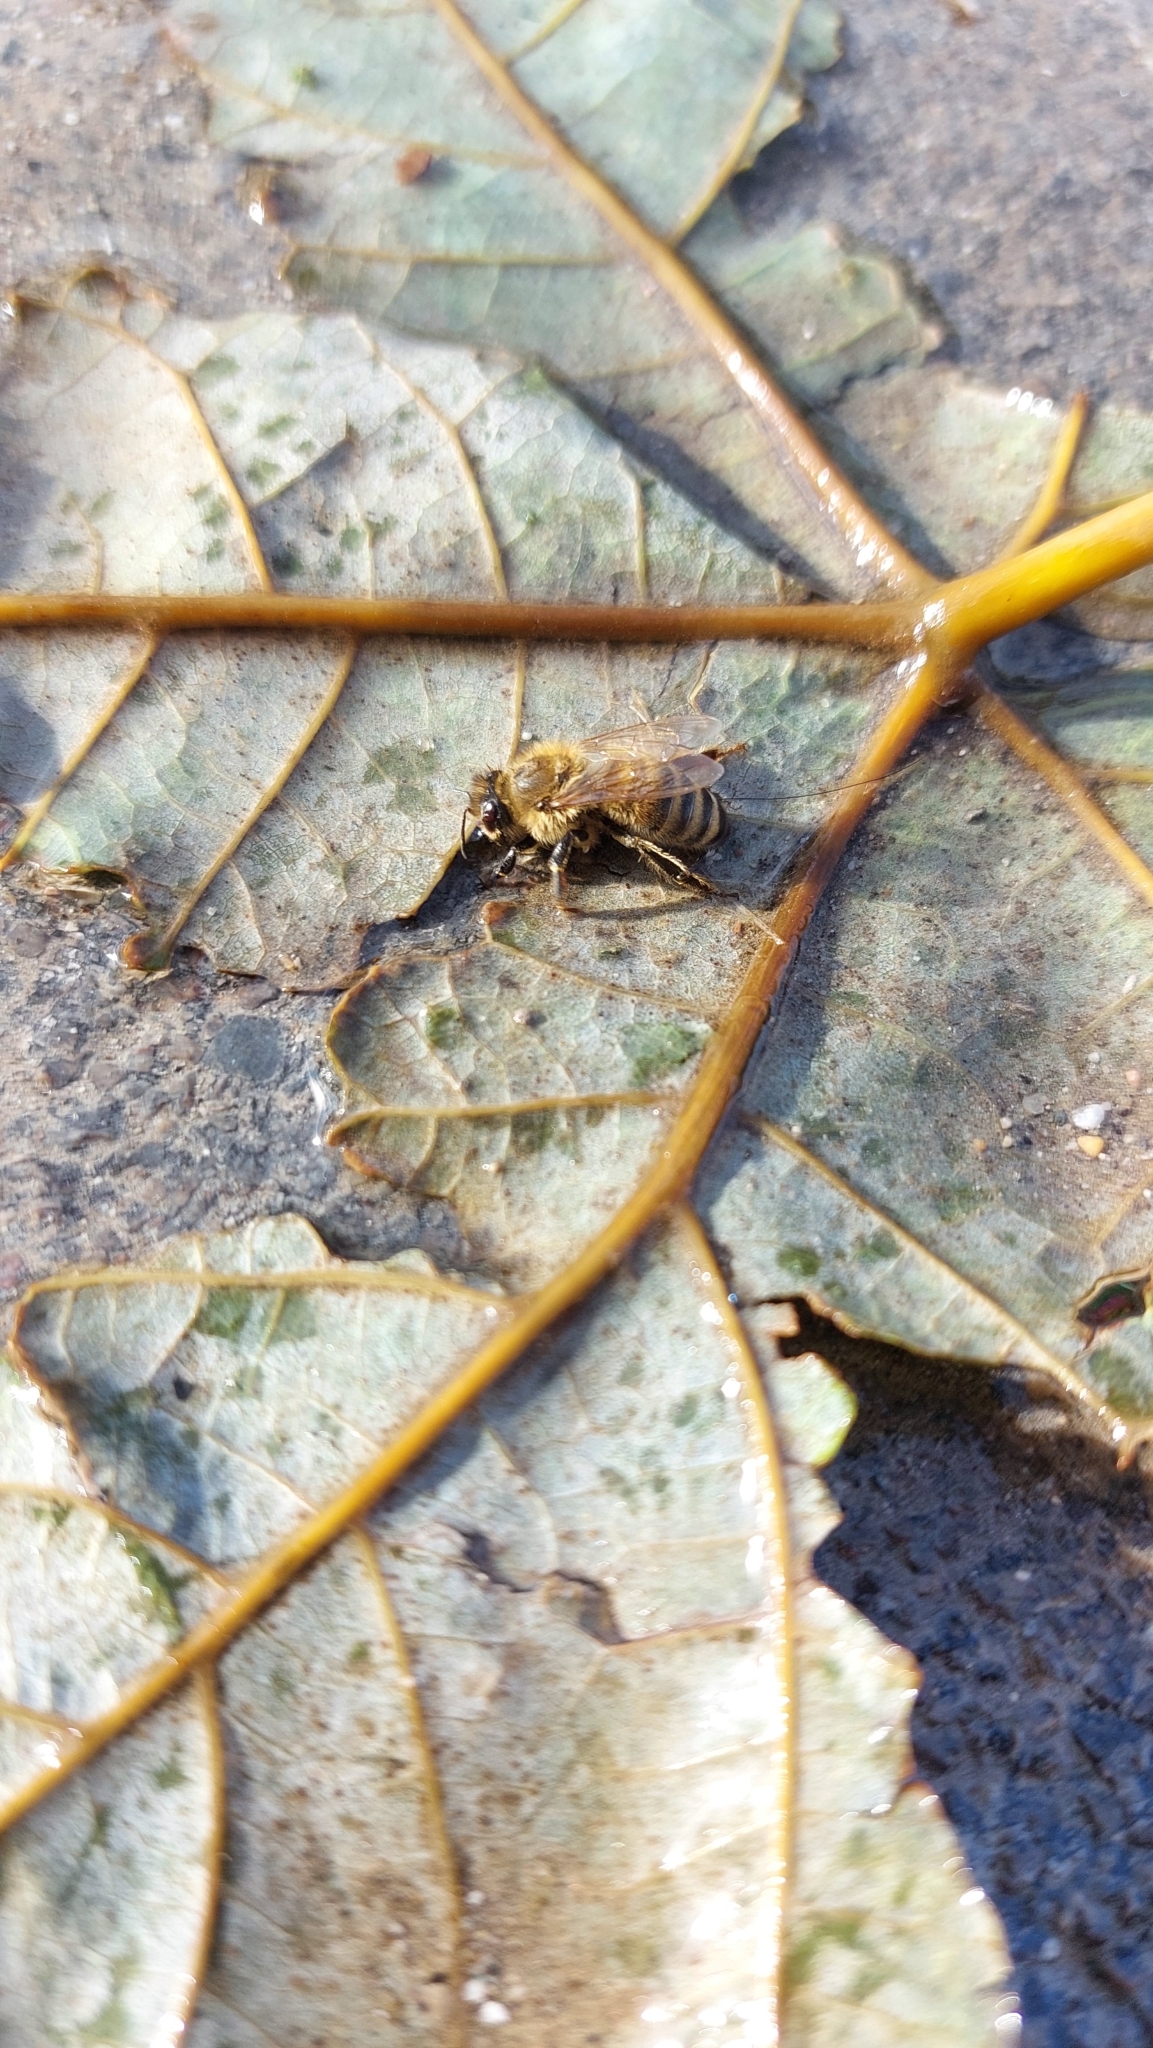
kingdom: Animalia
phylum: Arthropoda
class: Insecta
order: Hymenoptera
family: Apidae
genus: Apis
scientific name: Apis mellifera
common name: Honey bee
